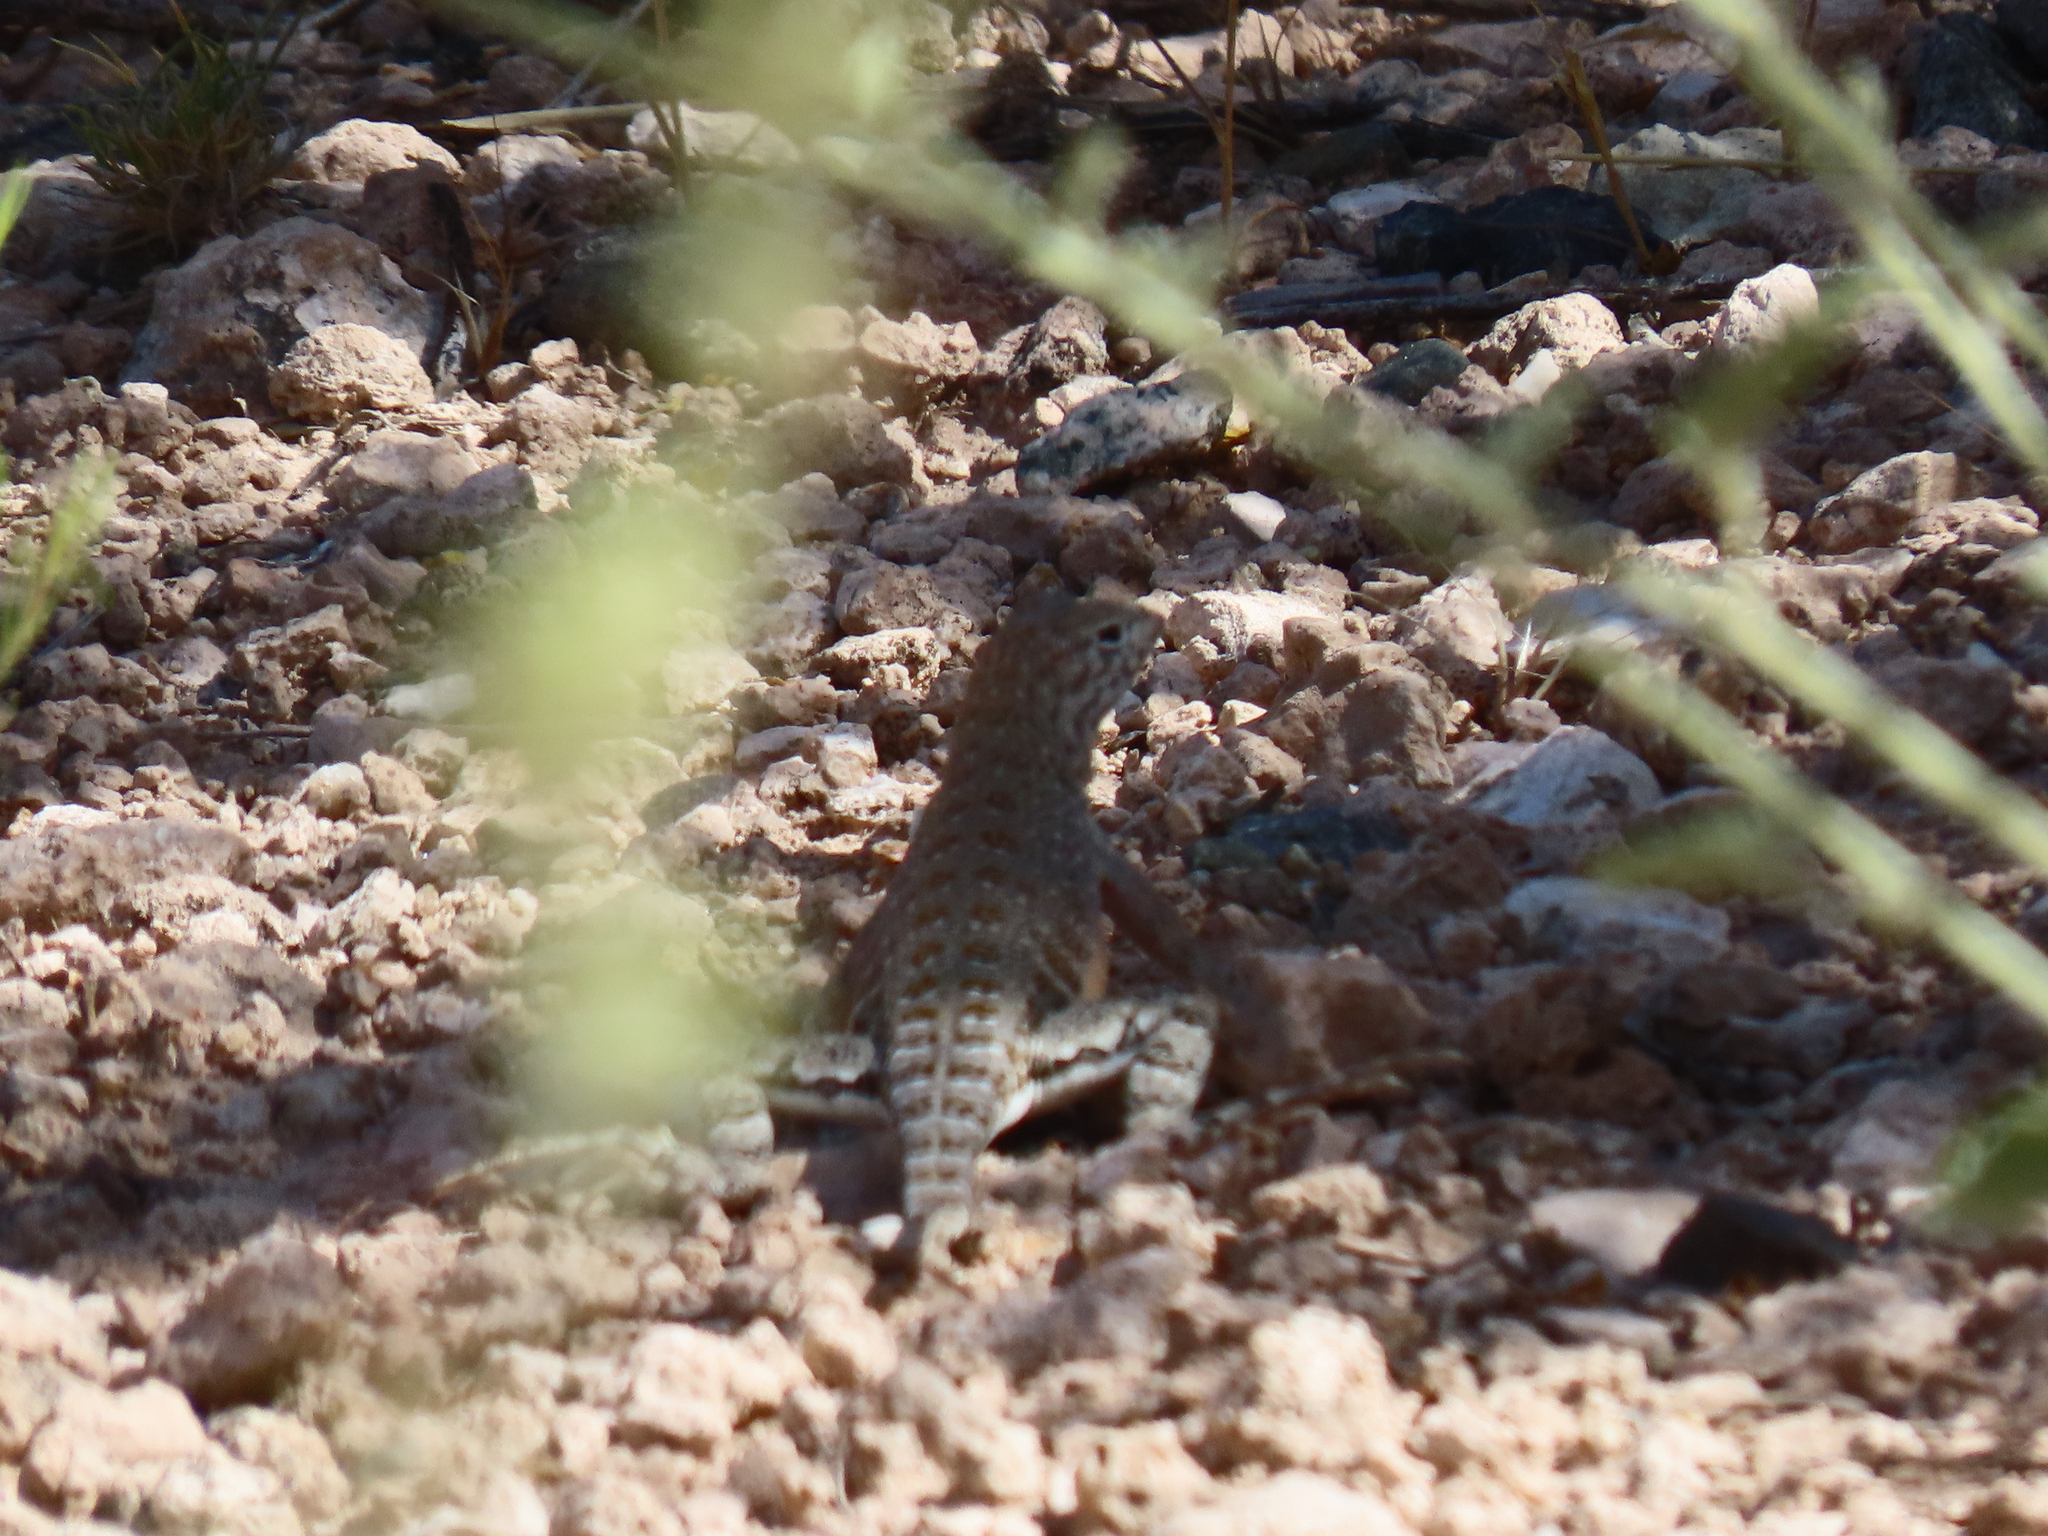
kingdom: Animalia
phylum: Chordata
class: Squamata
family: Phrynosomatidae
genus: Cophosaurus
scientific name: Cophosaurus texanus
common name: Greater earless lizard
